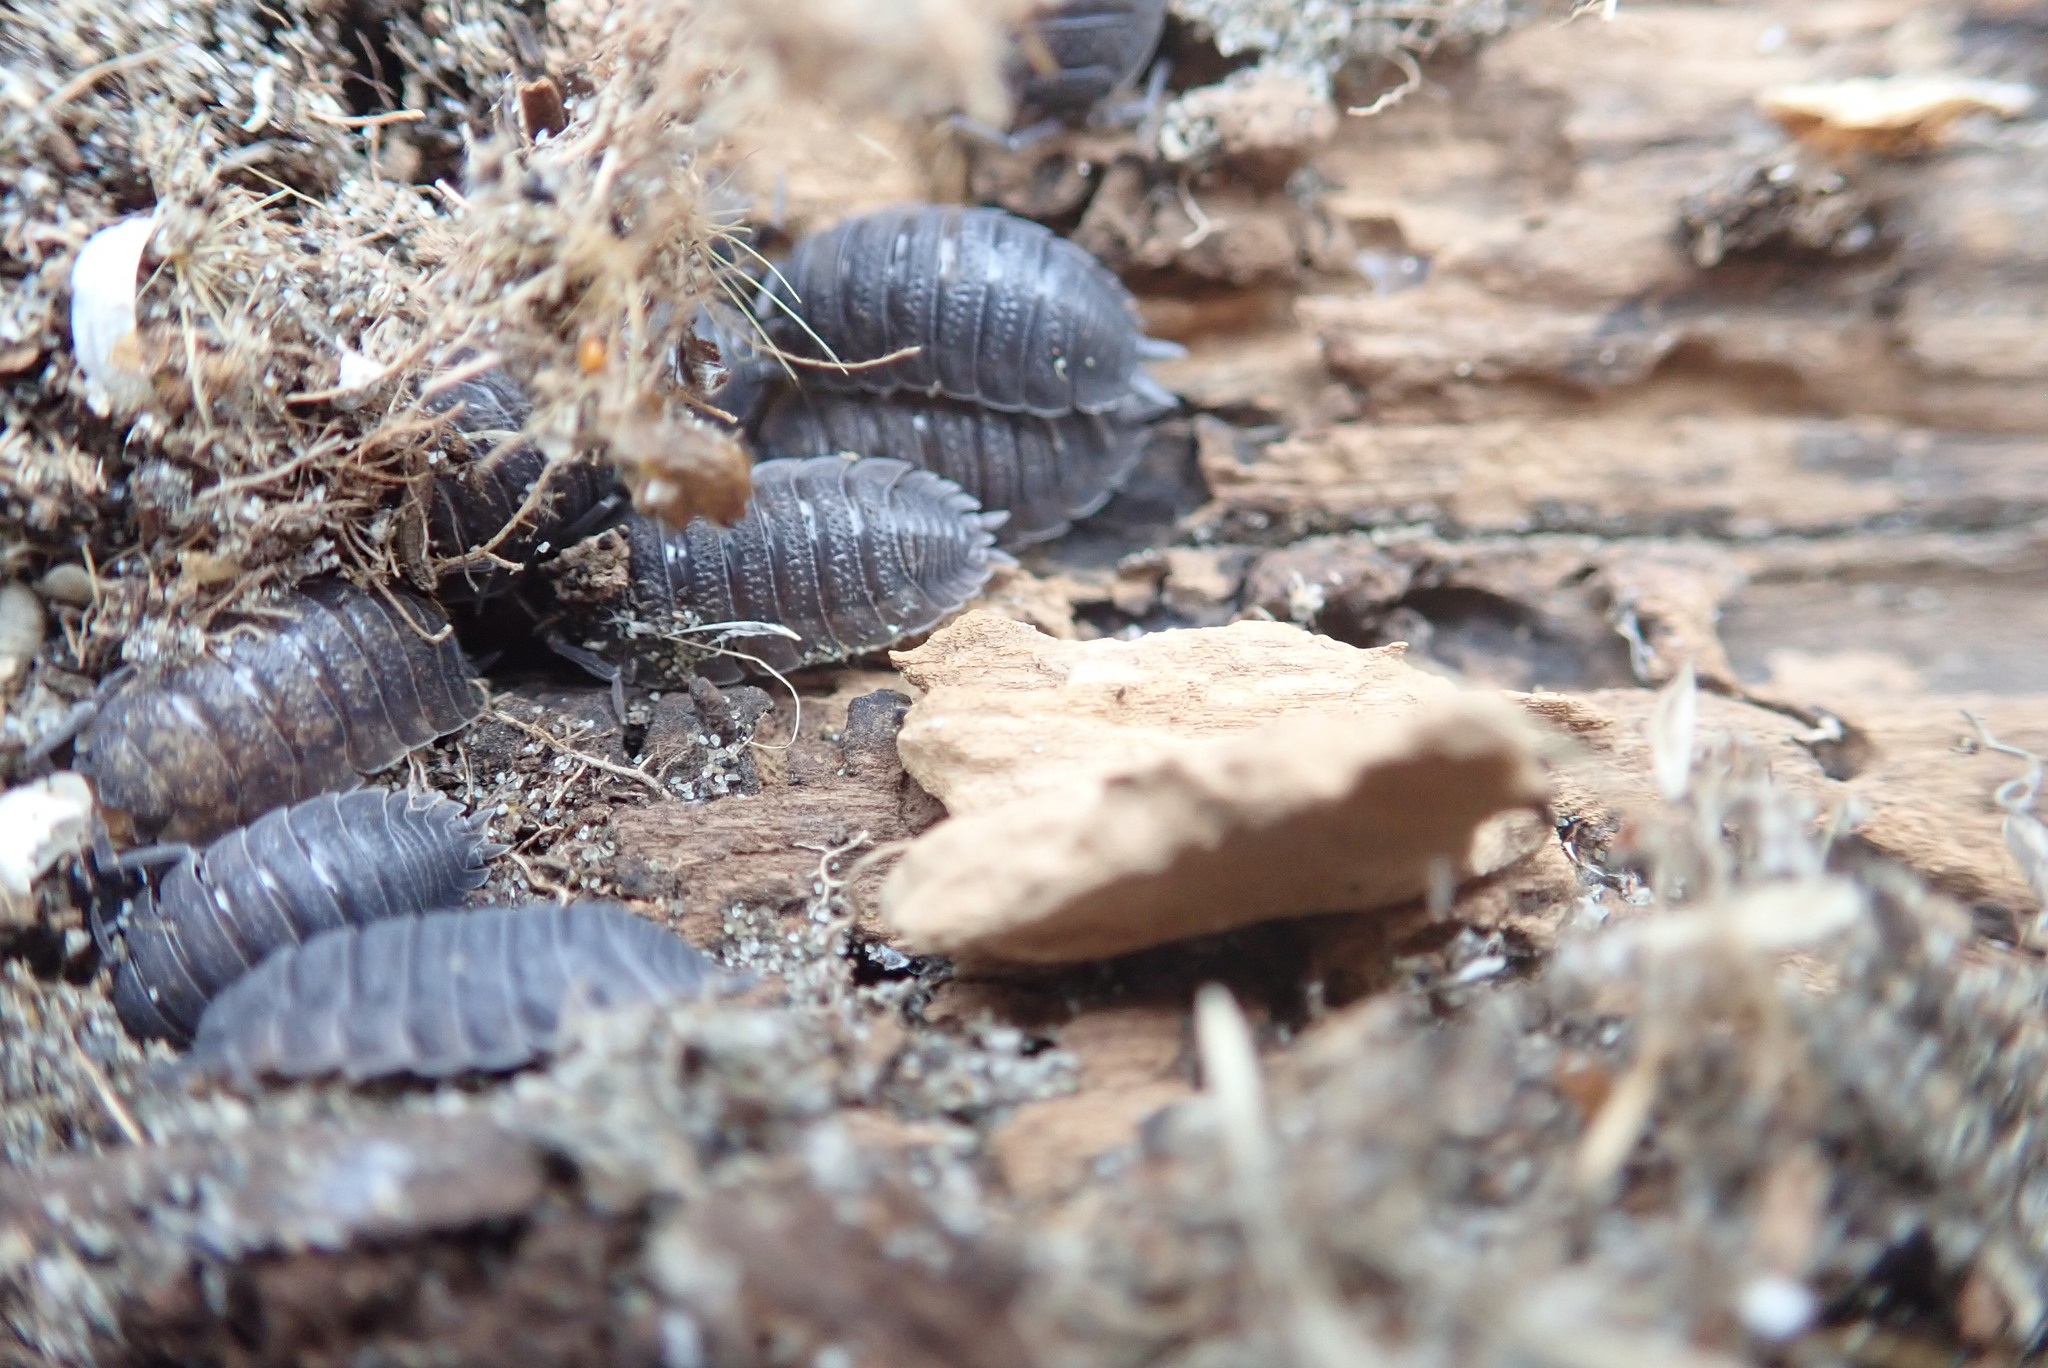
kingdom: Animalia
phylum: Arthropoda
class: Malacostraca
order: Isopoda
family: Porcellionidae
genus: Porcellio
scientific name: Porcellio scaber
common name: Common rough woodlouse
